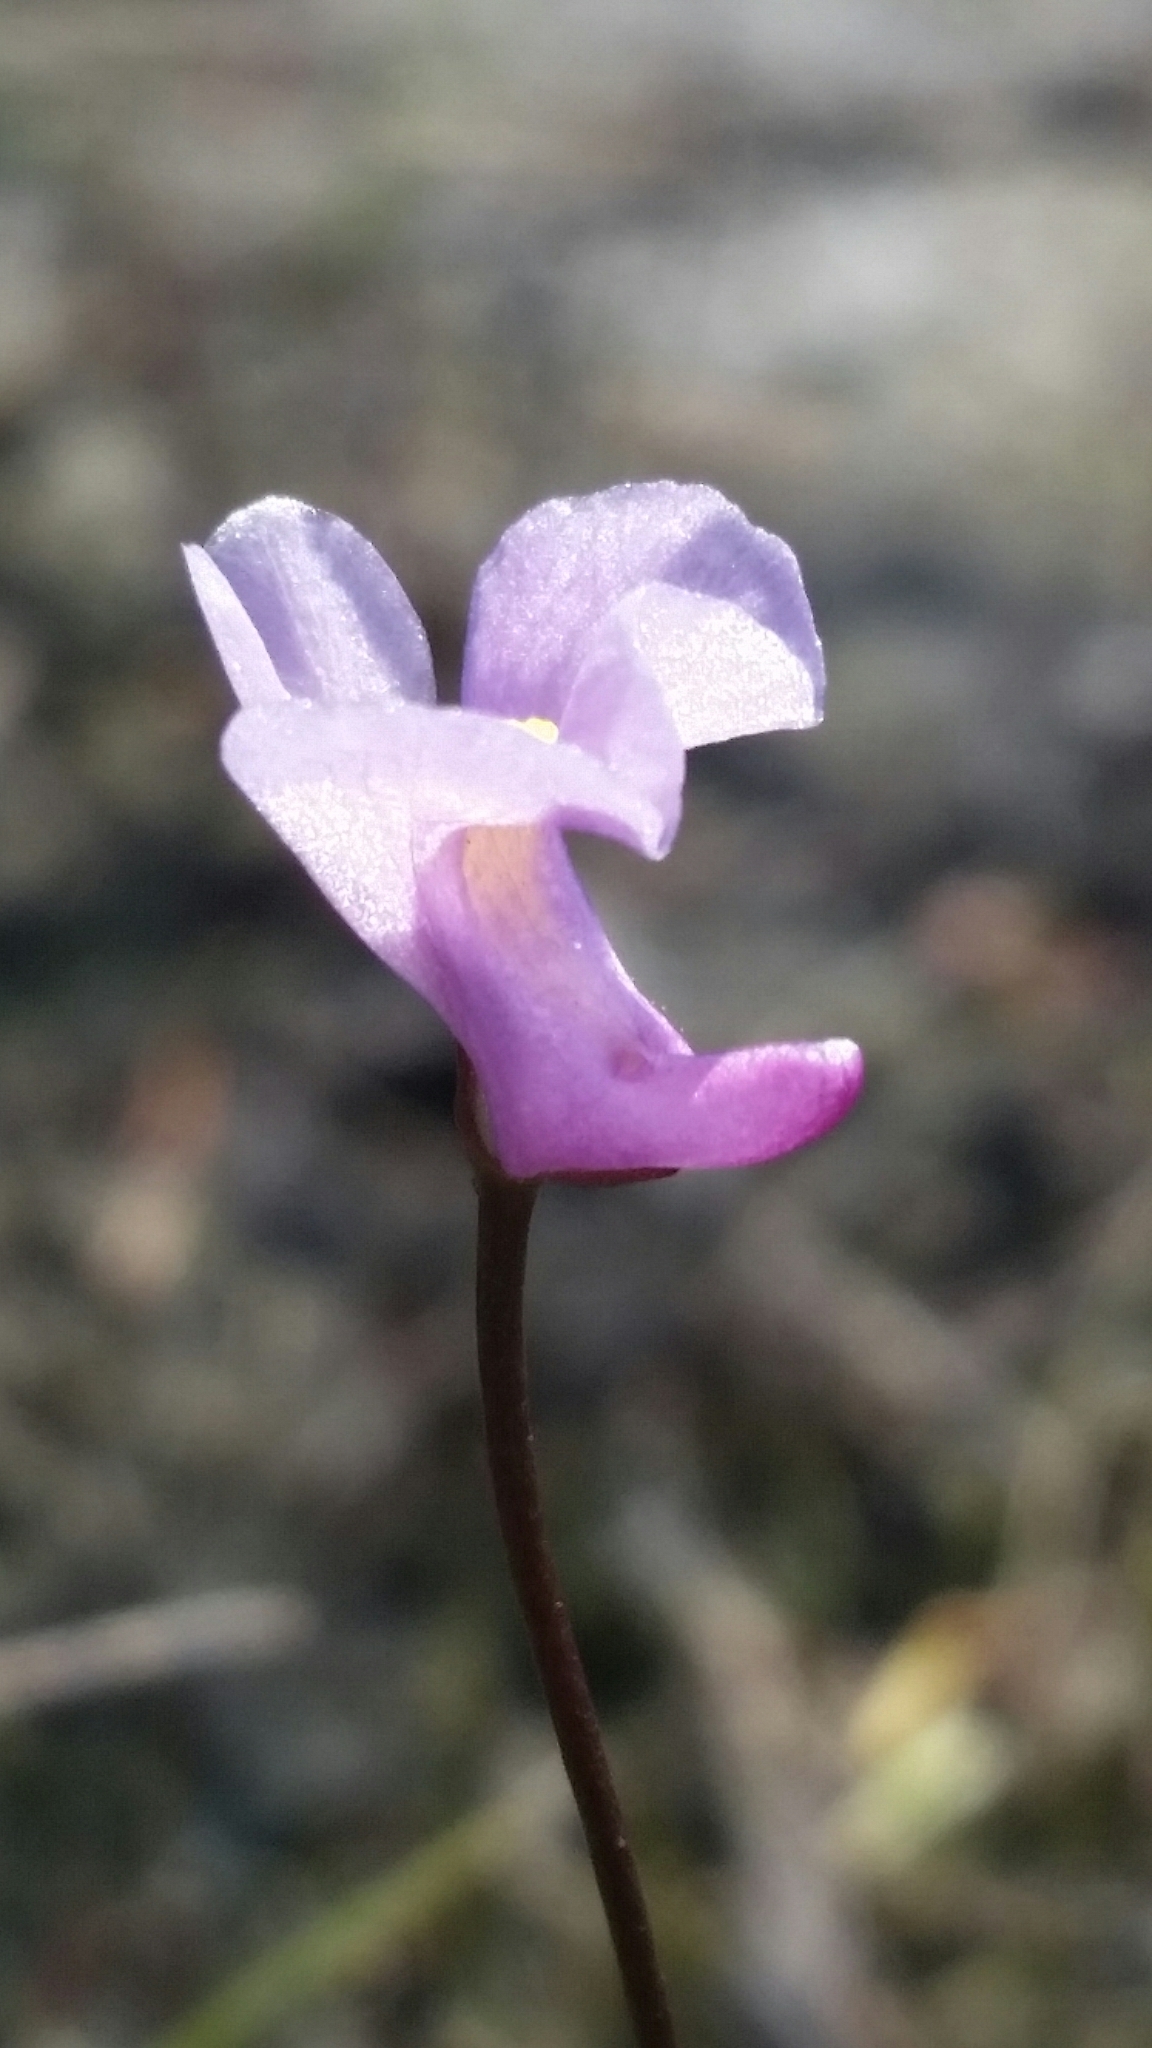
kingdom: Plantae
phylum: Tracheophyta
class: Magnoliopsida
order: Lamiales
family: Lentibulariaceae
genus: Utricularia
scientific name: Utricularia resupinata
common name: Northeastern bladderwort
